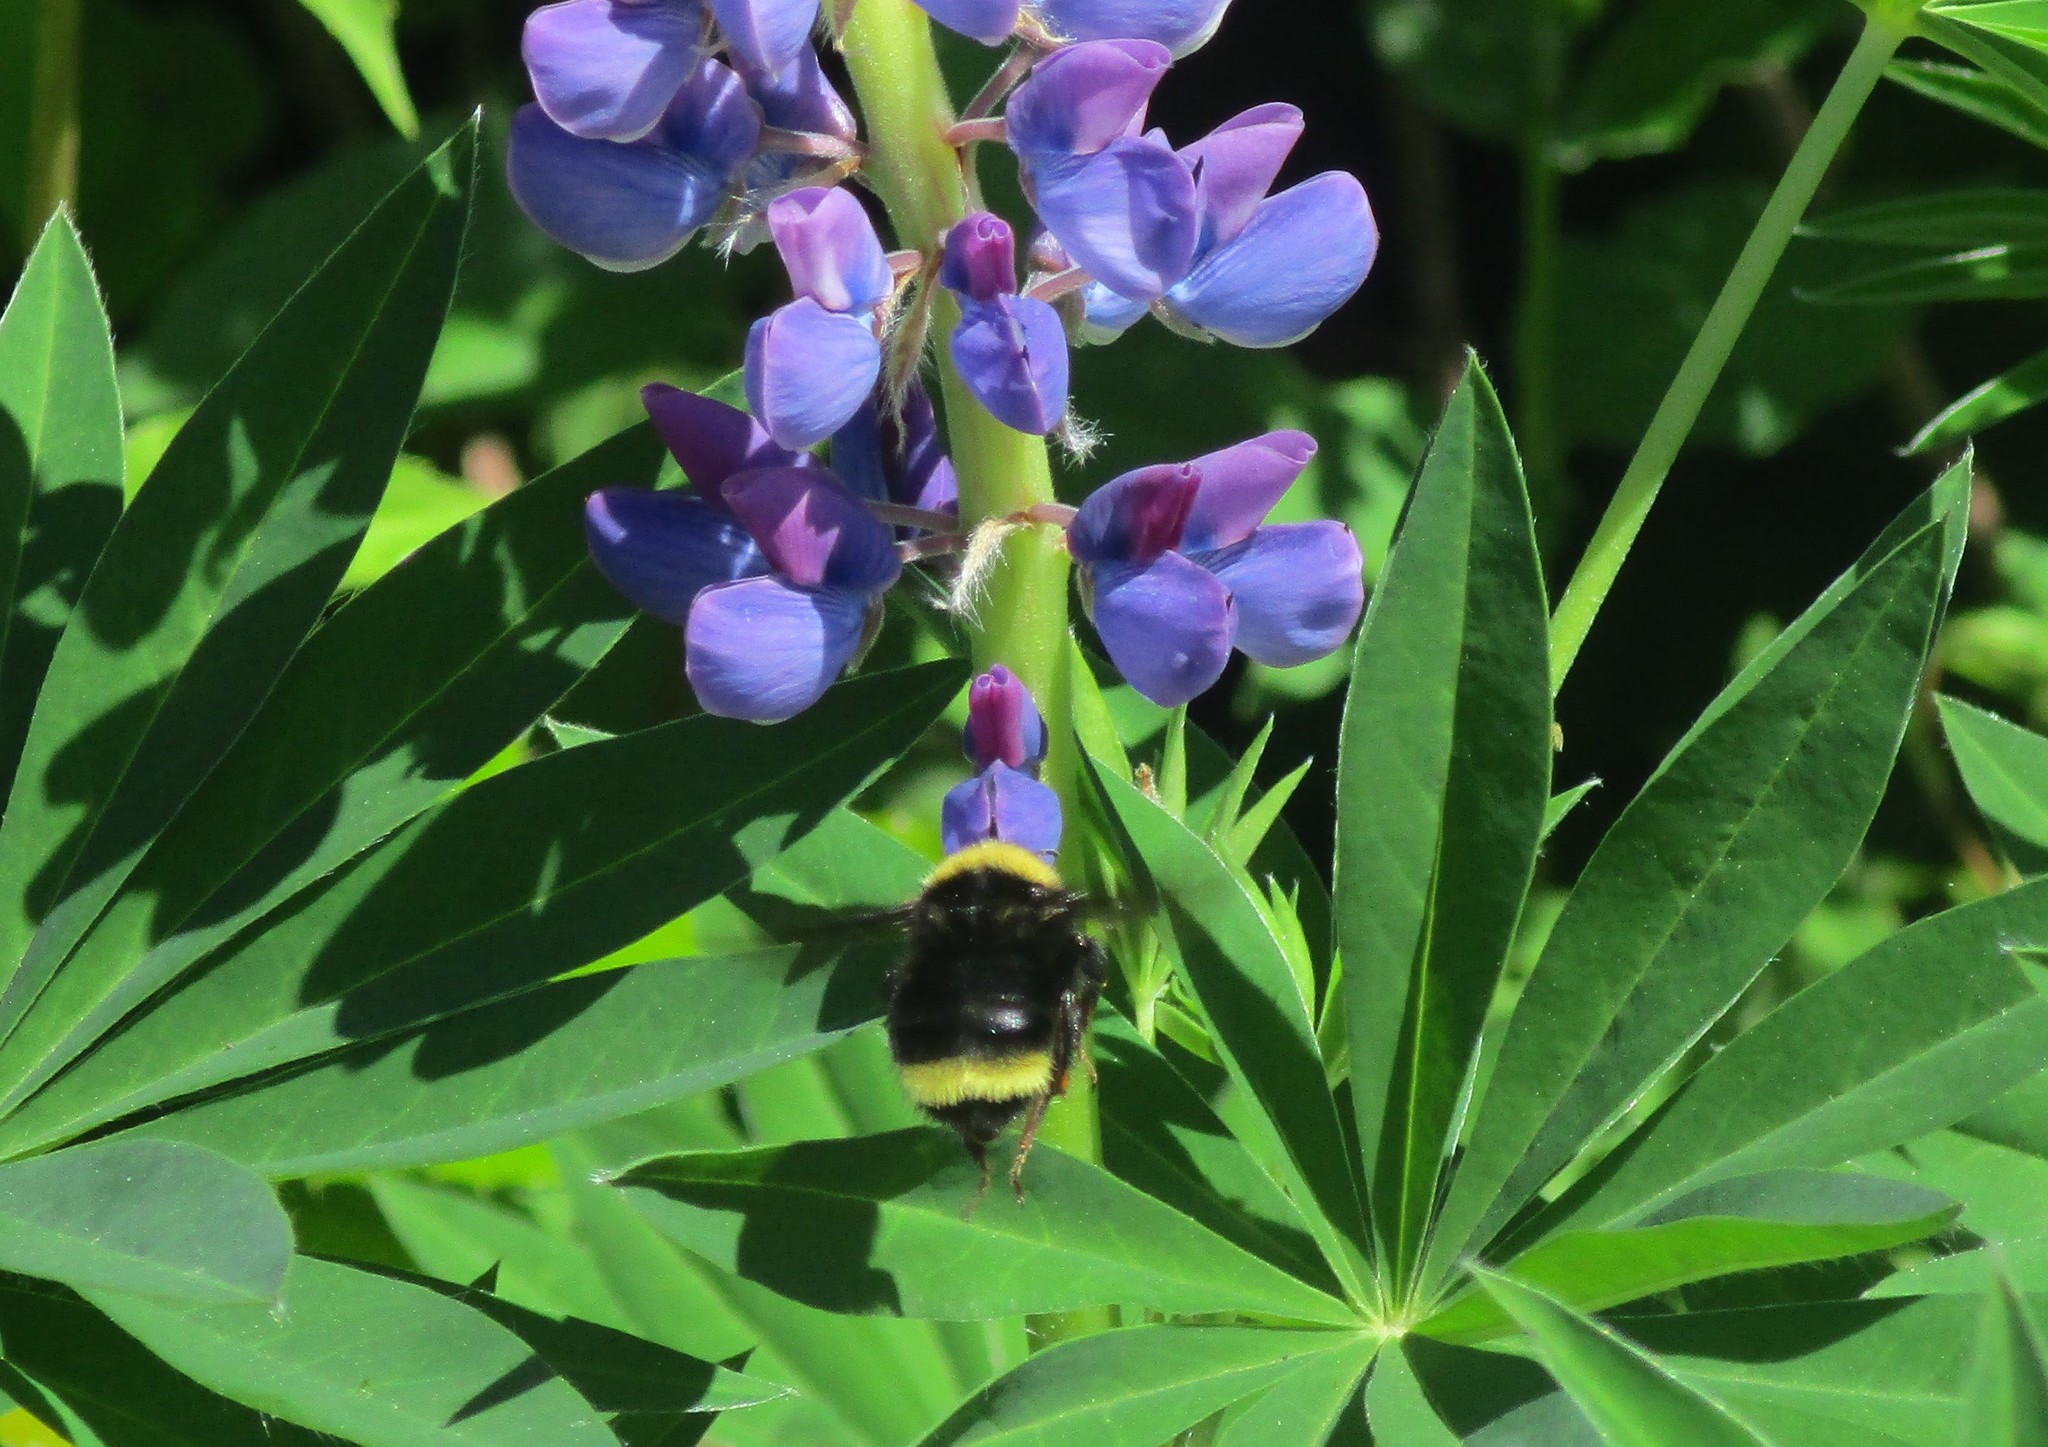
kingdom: Animalia
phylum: Arthropoda
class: Insecta
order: Hymenoptera
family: Apidae
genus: Bombus
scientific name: Bombus californicus
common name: California bumble bee
